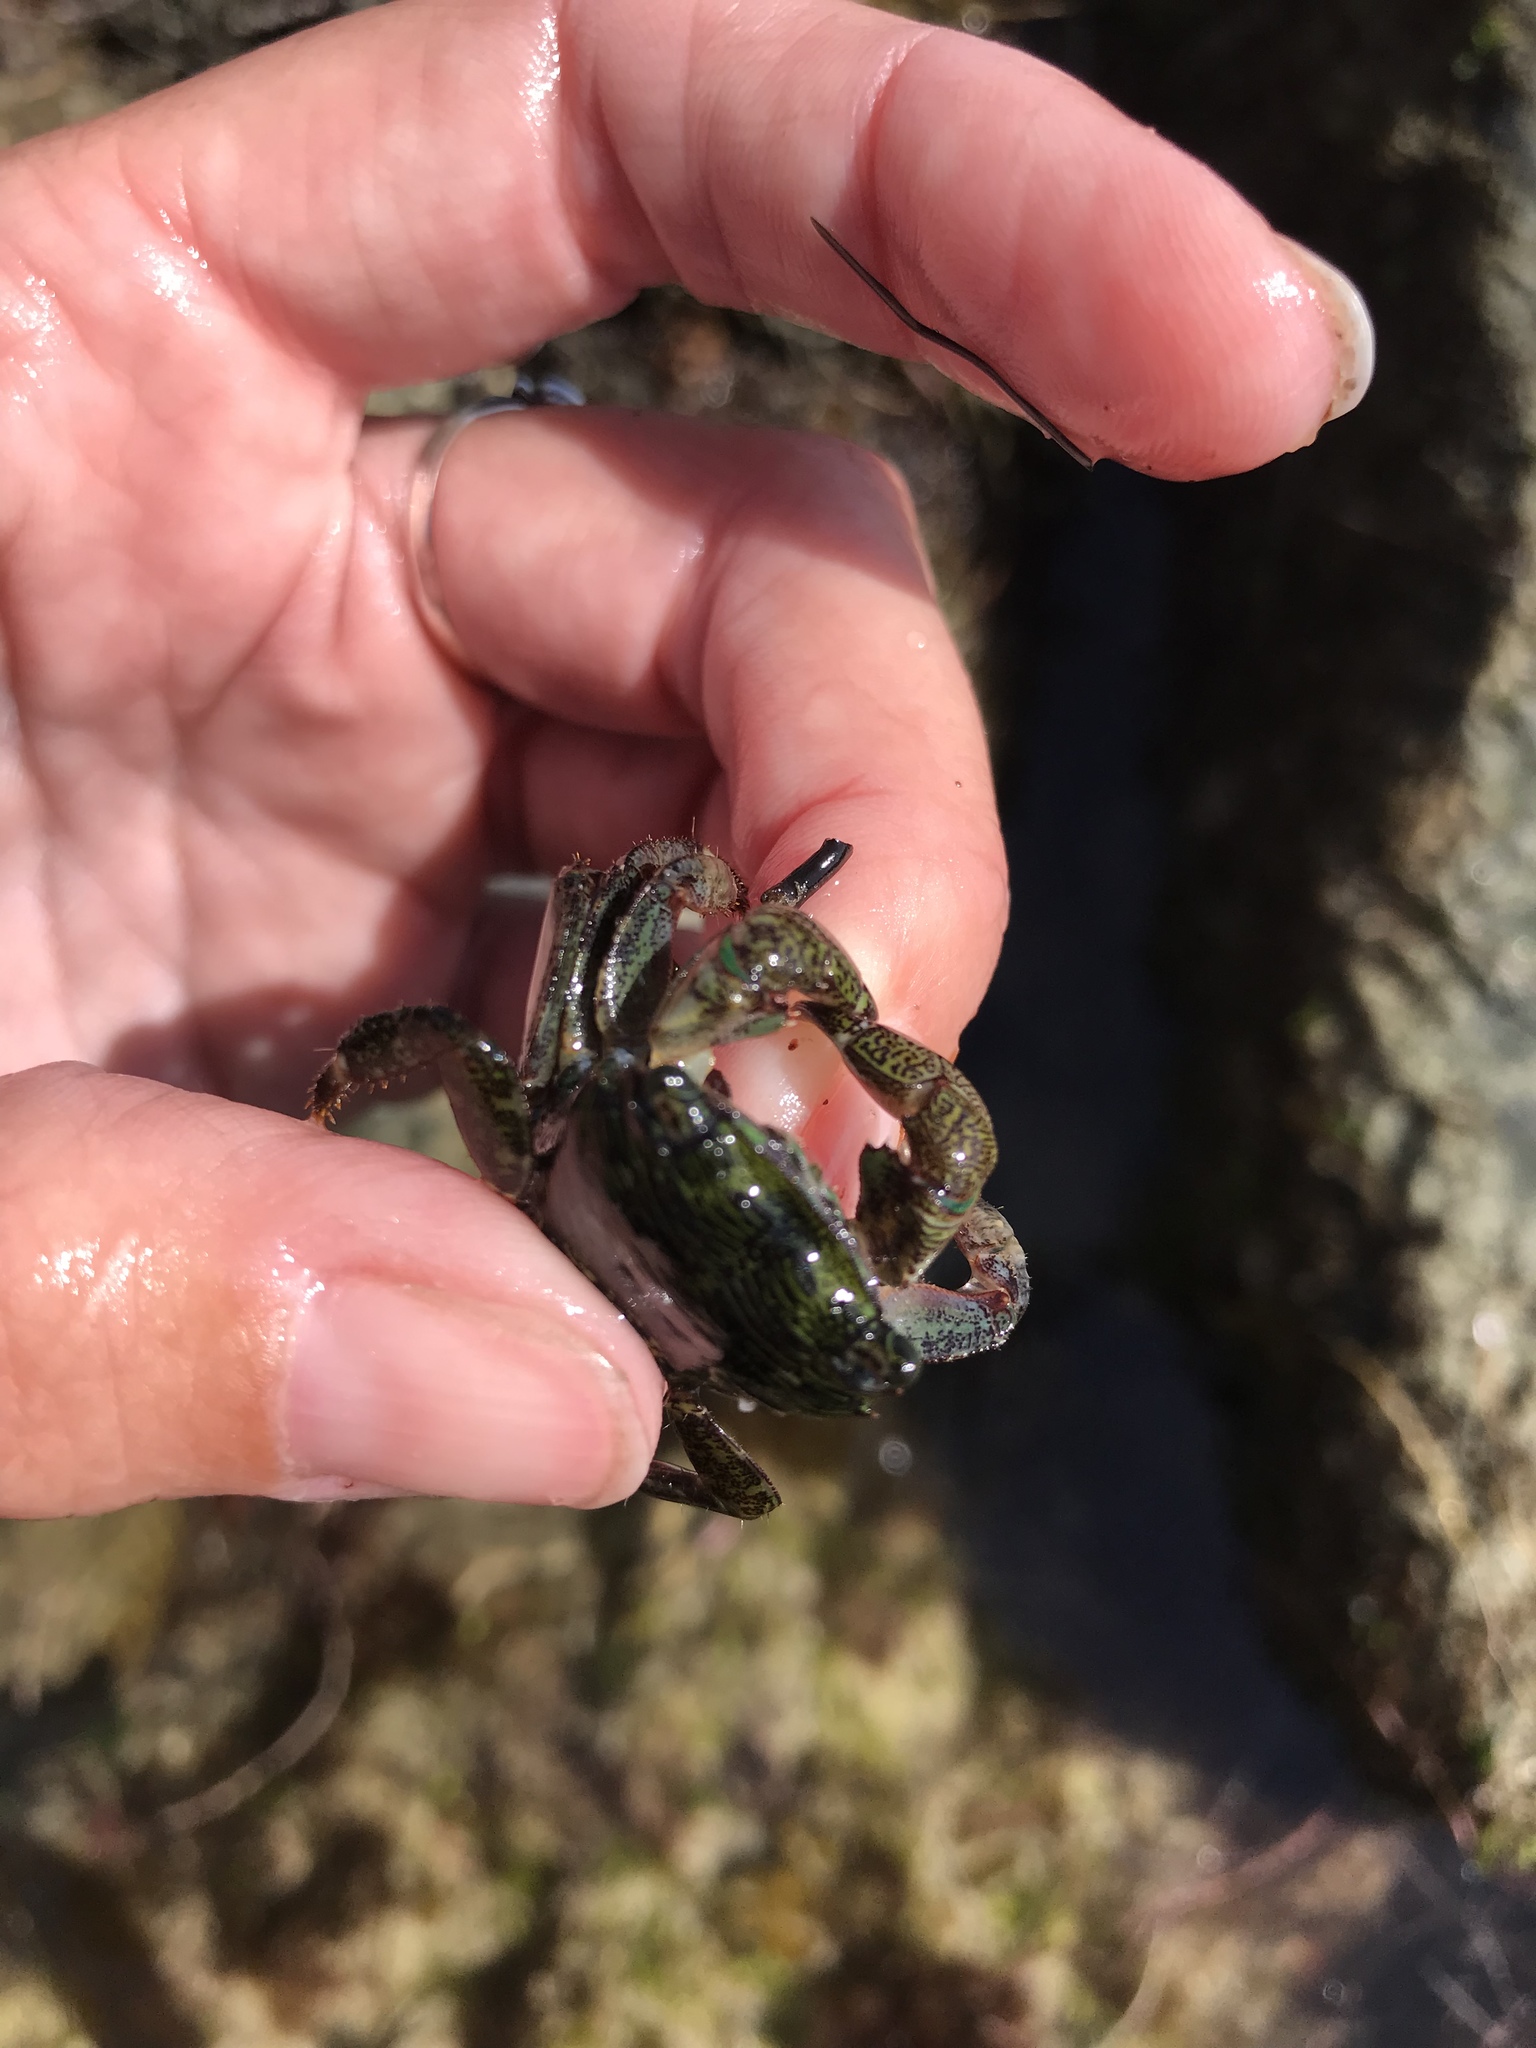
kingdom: Animalia
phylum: Arthropoda
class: Malacostraca
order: Decapoda
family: Grapsidae
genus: Pachygrapsus
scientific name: Pachygrapsus crassipes
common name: Striped shore crab
